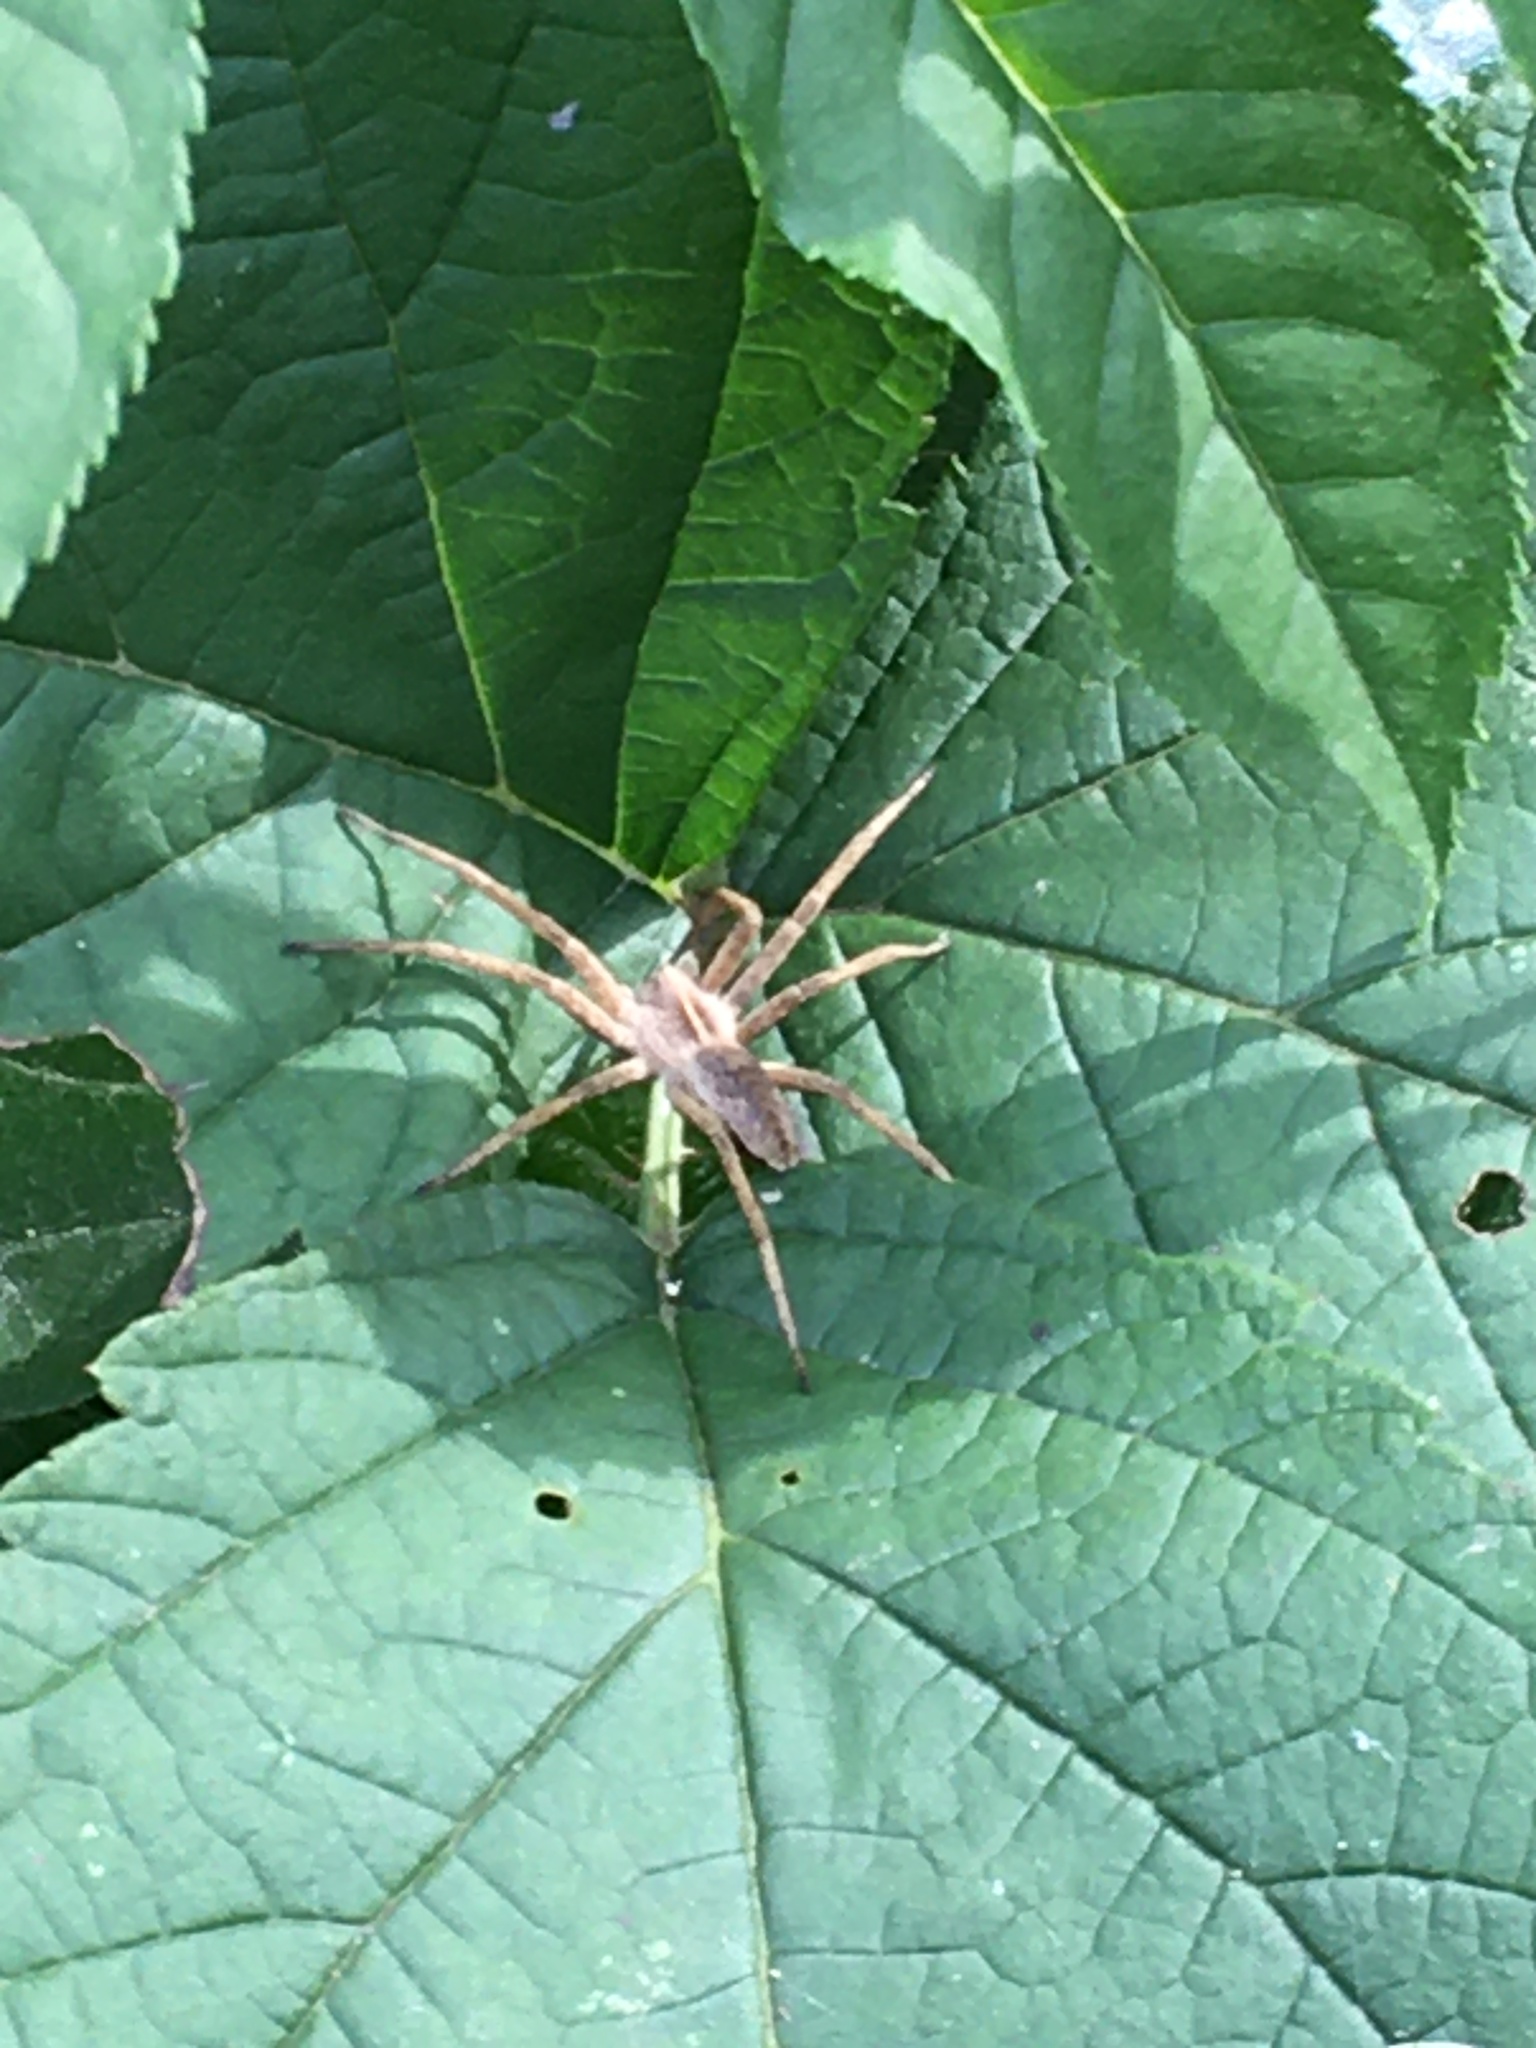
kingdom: Animalia
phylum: Arthropoda
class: Arachnida
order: Araneae
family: Pisauridae
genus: Pisaura
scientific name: Pisaura mirabilis
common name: Tent spider
